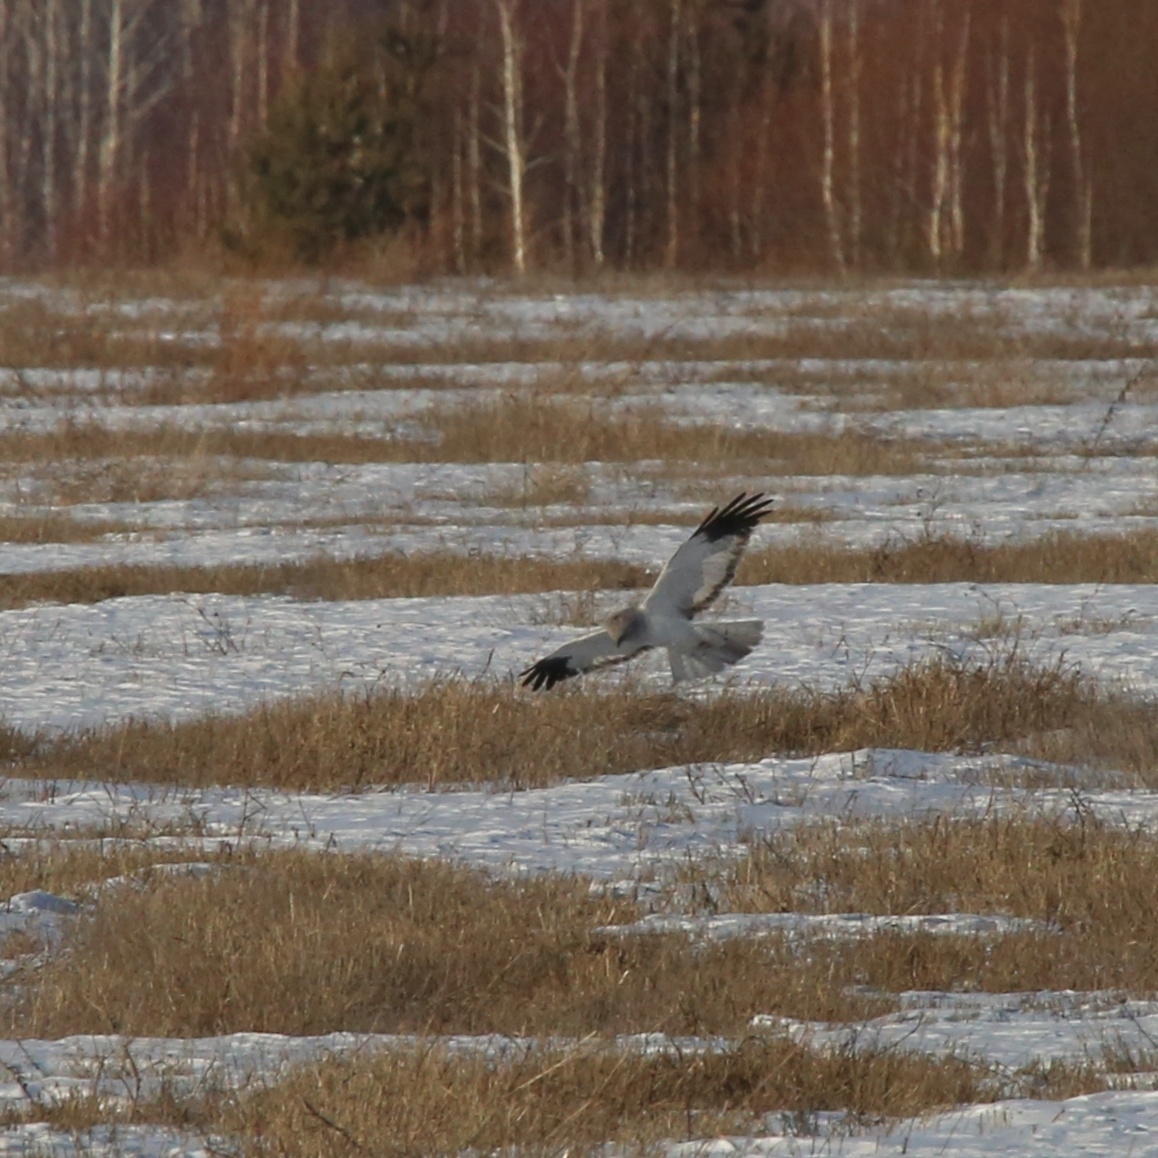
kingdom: Animalia
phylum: Chordata
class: Aves
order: Accipitriformes
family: Accipitridae
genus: Circus
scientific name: Circus cyaneus
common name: Hen harrier
